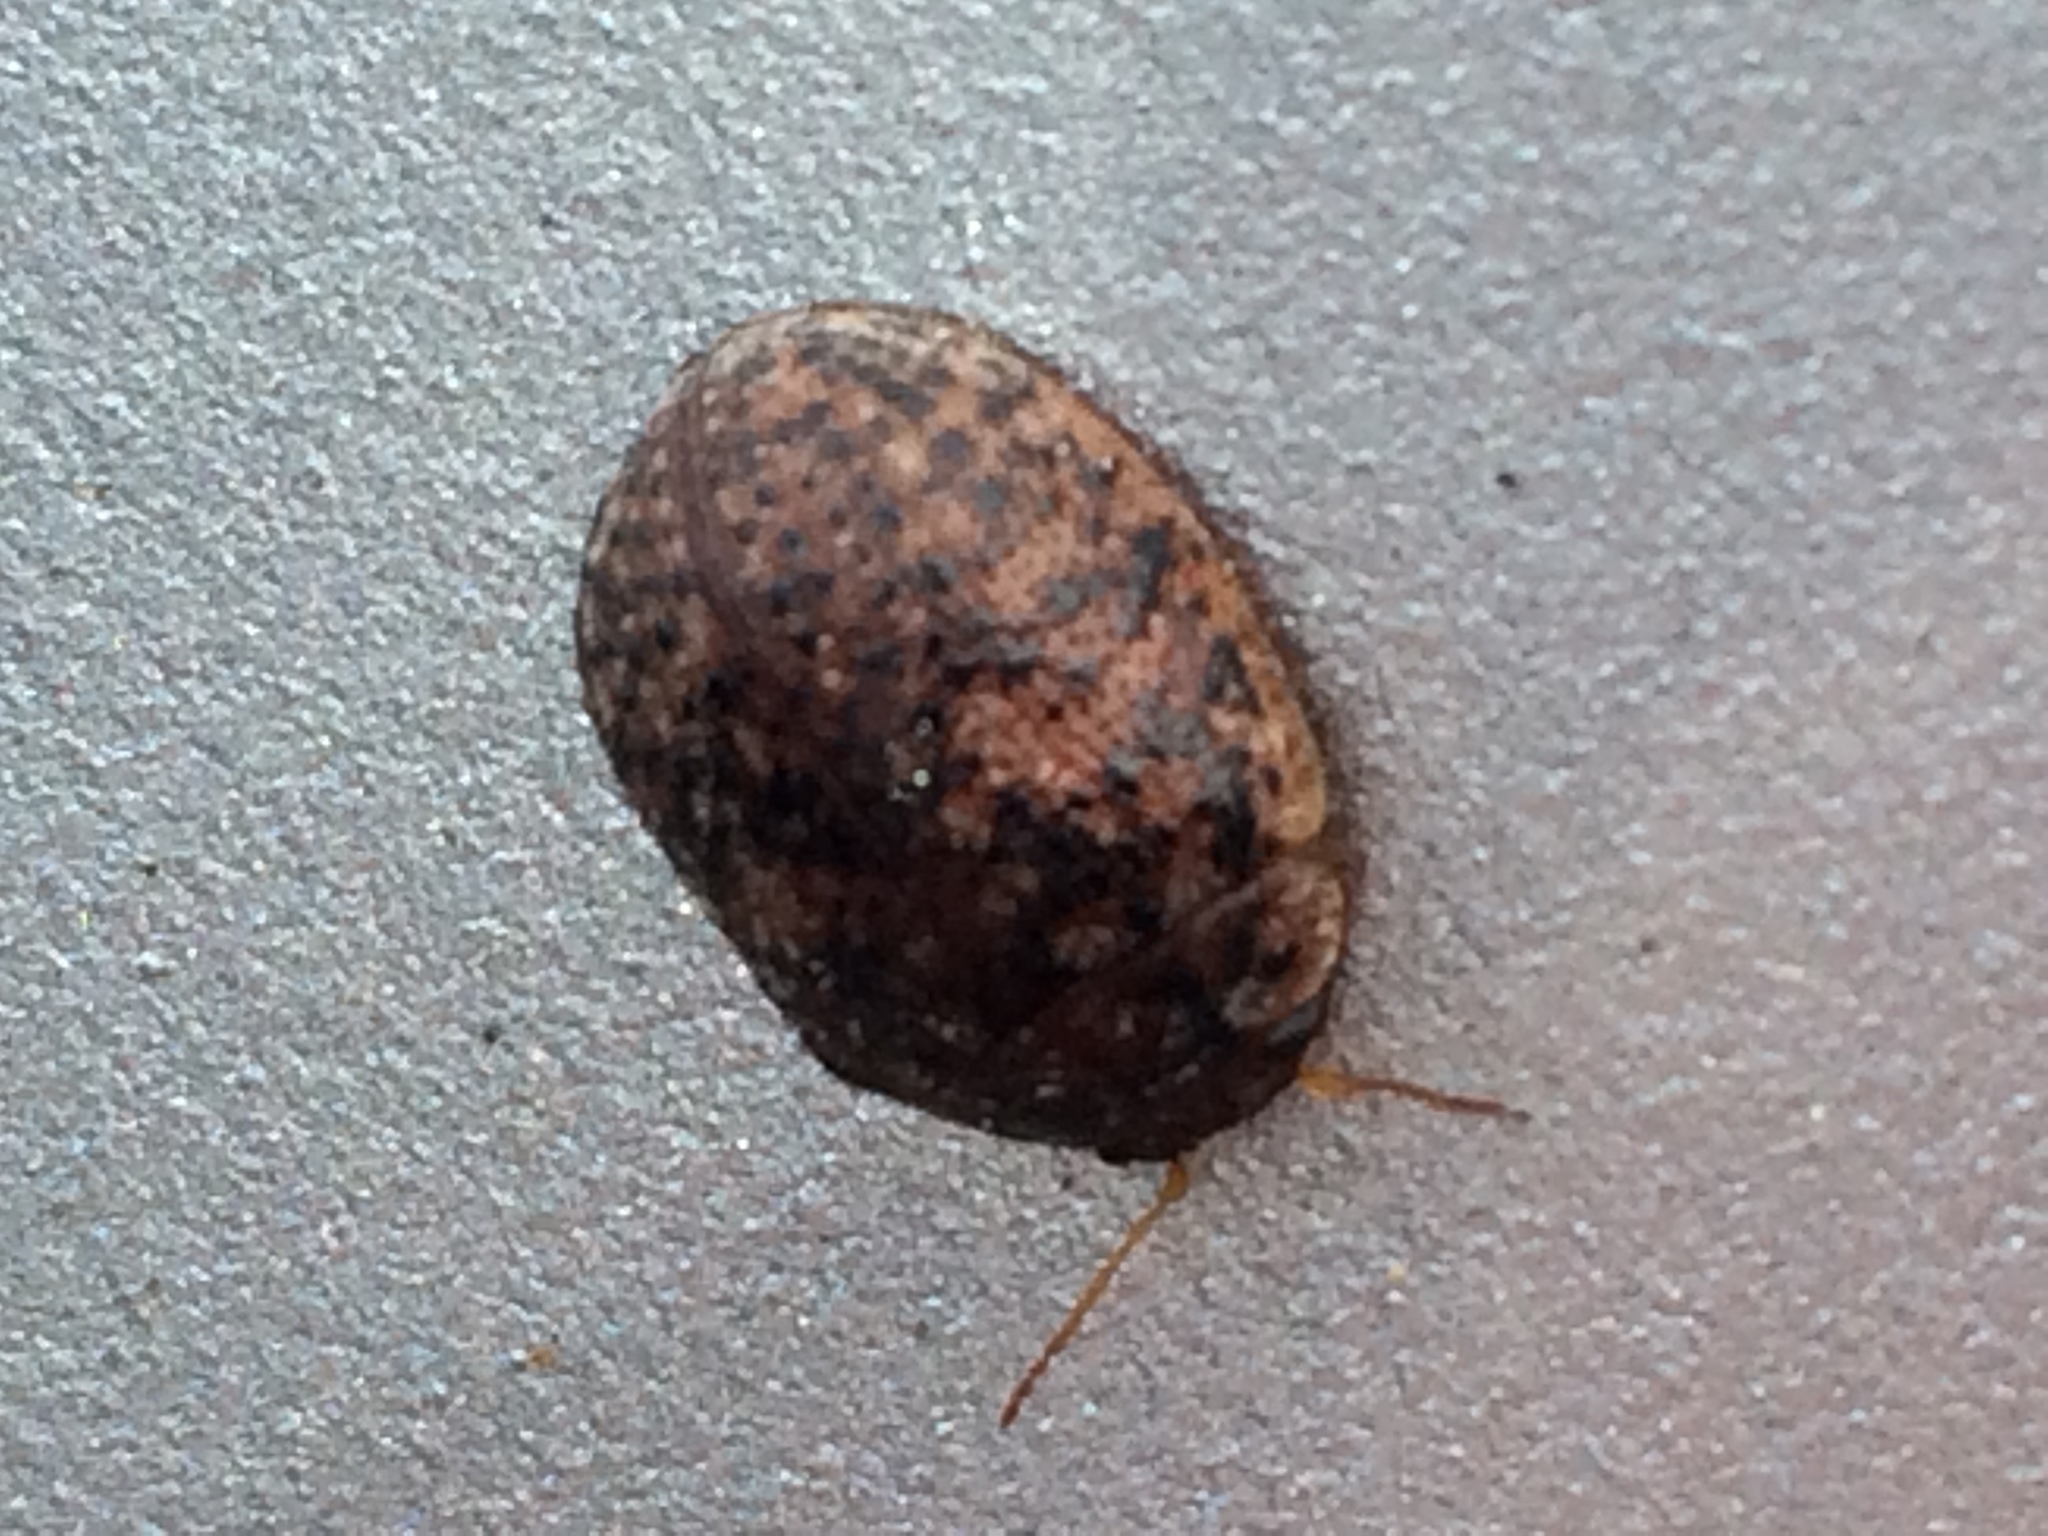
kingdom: Animalia
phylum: Arthropoda
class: Insecta
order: Coleoptera
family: Chrysomelidae
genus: Trachymela
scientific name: Trachymela sloanei
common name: Australian tortoise beetle
